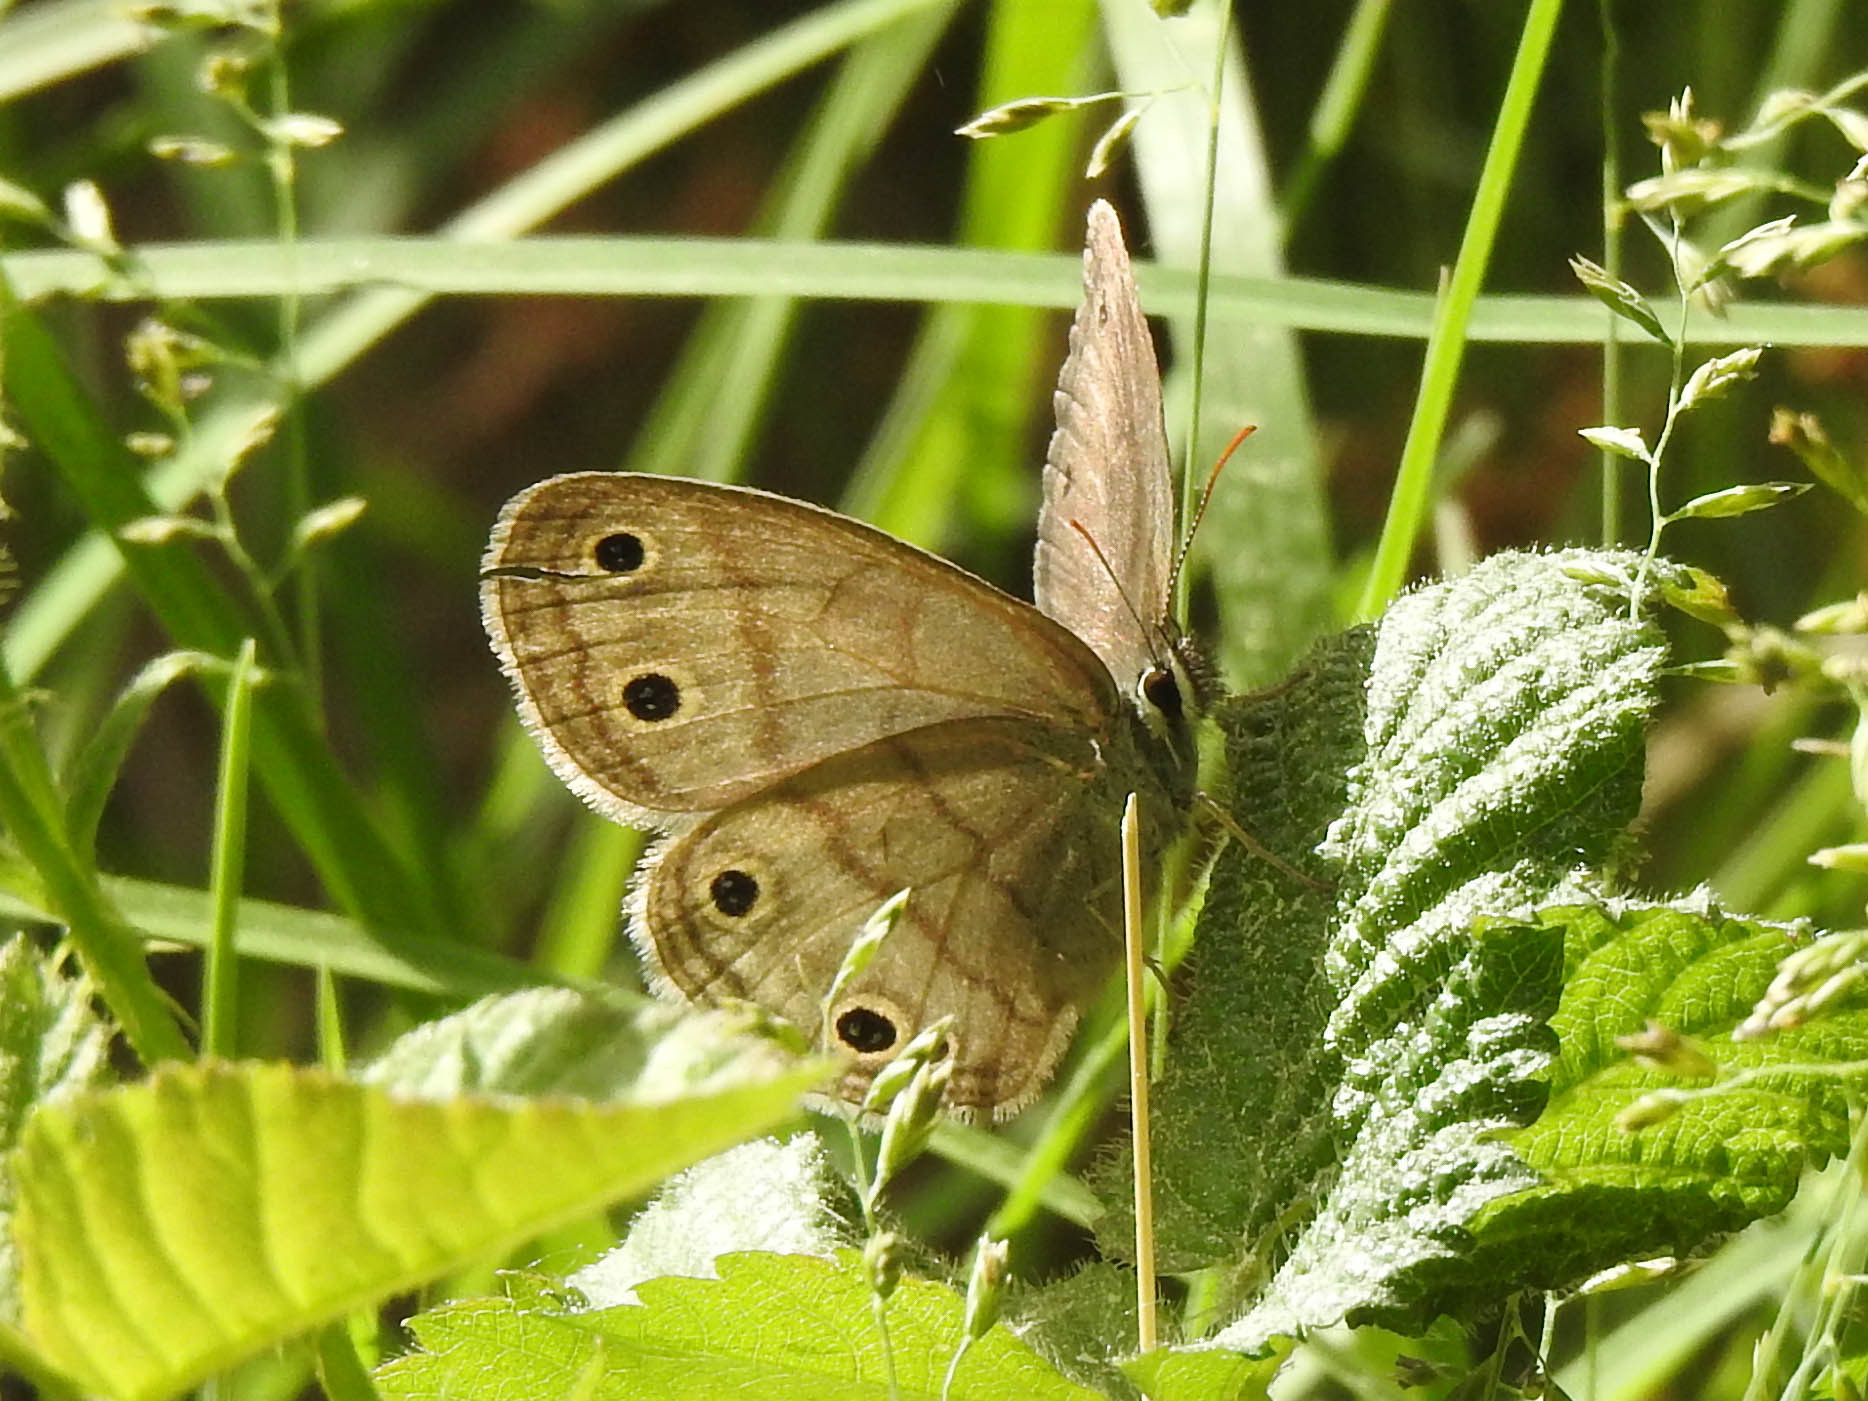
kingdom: Animalia
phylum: Arthropoda
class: Insecta
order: Lepidoptera
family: Nymphalidae
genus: Euptychia
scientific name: Euptychia cymela
